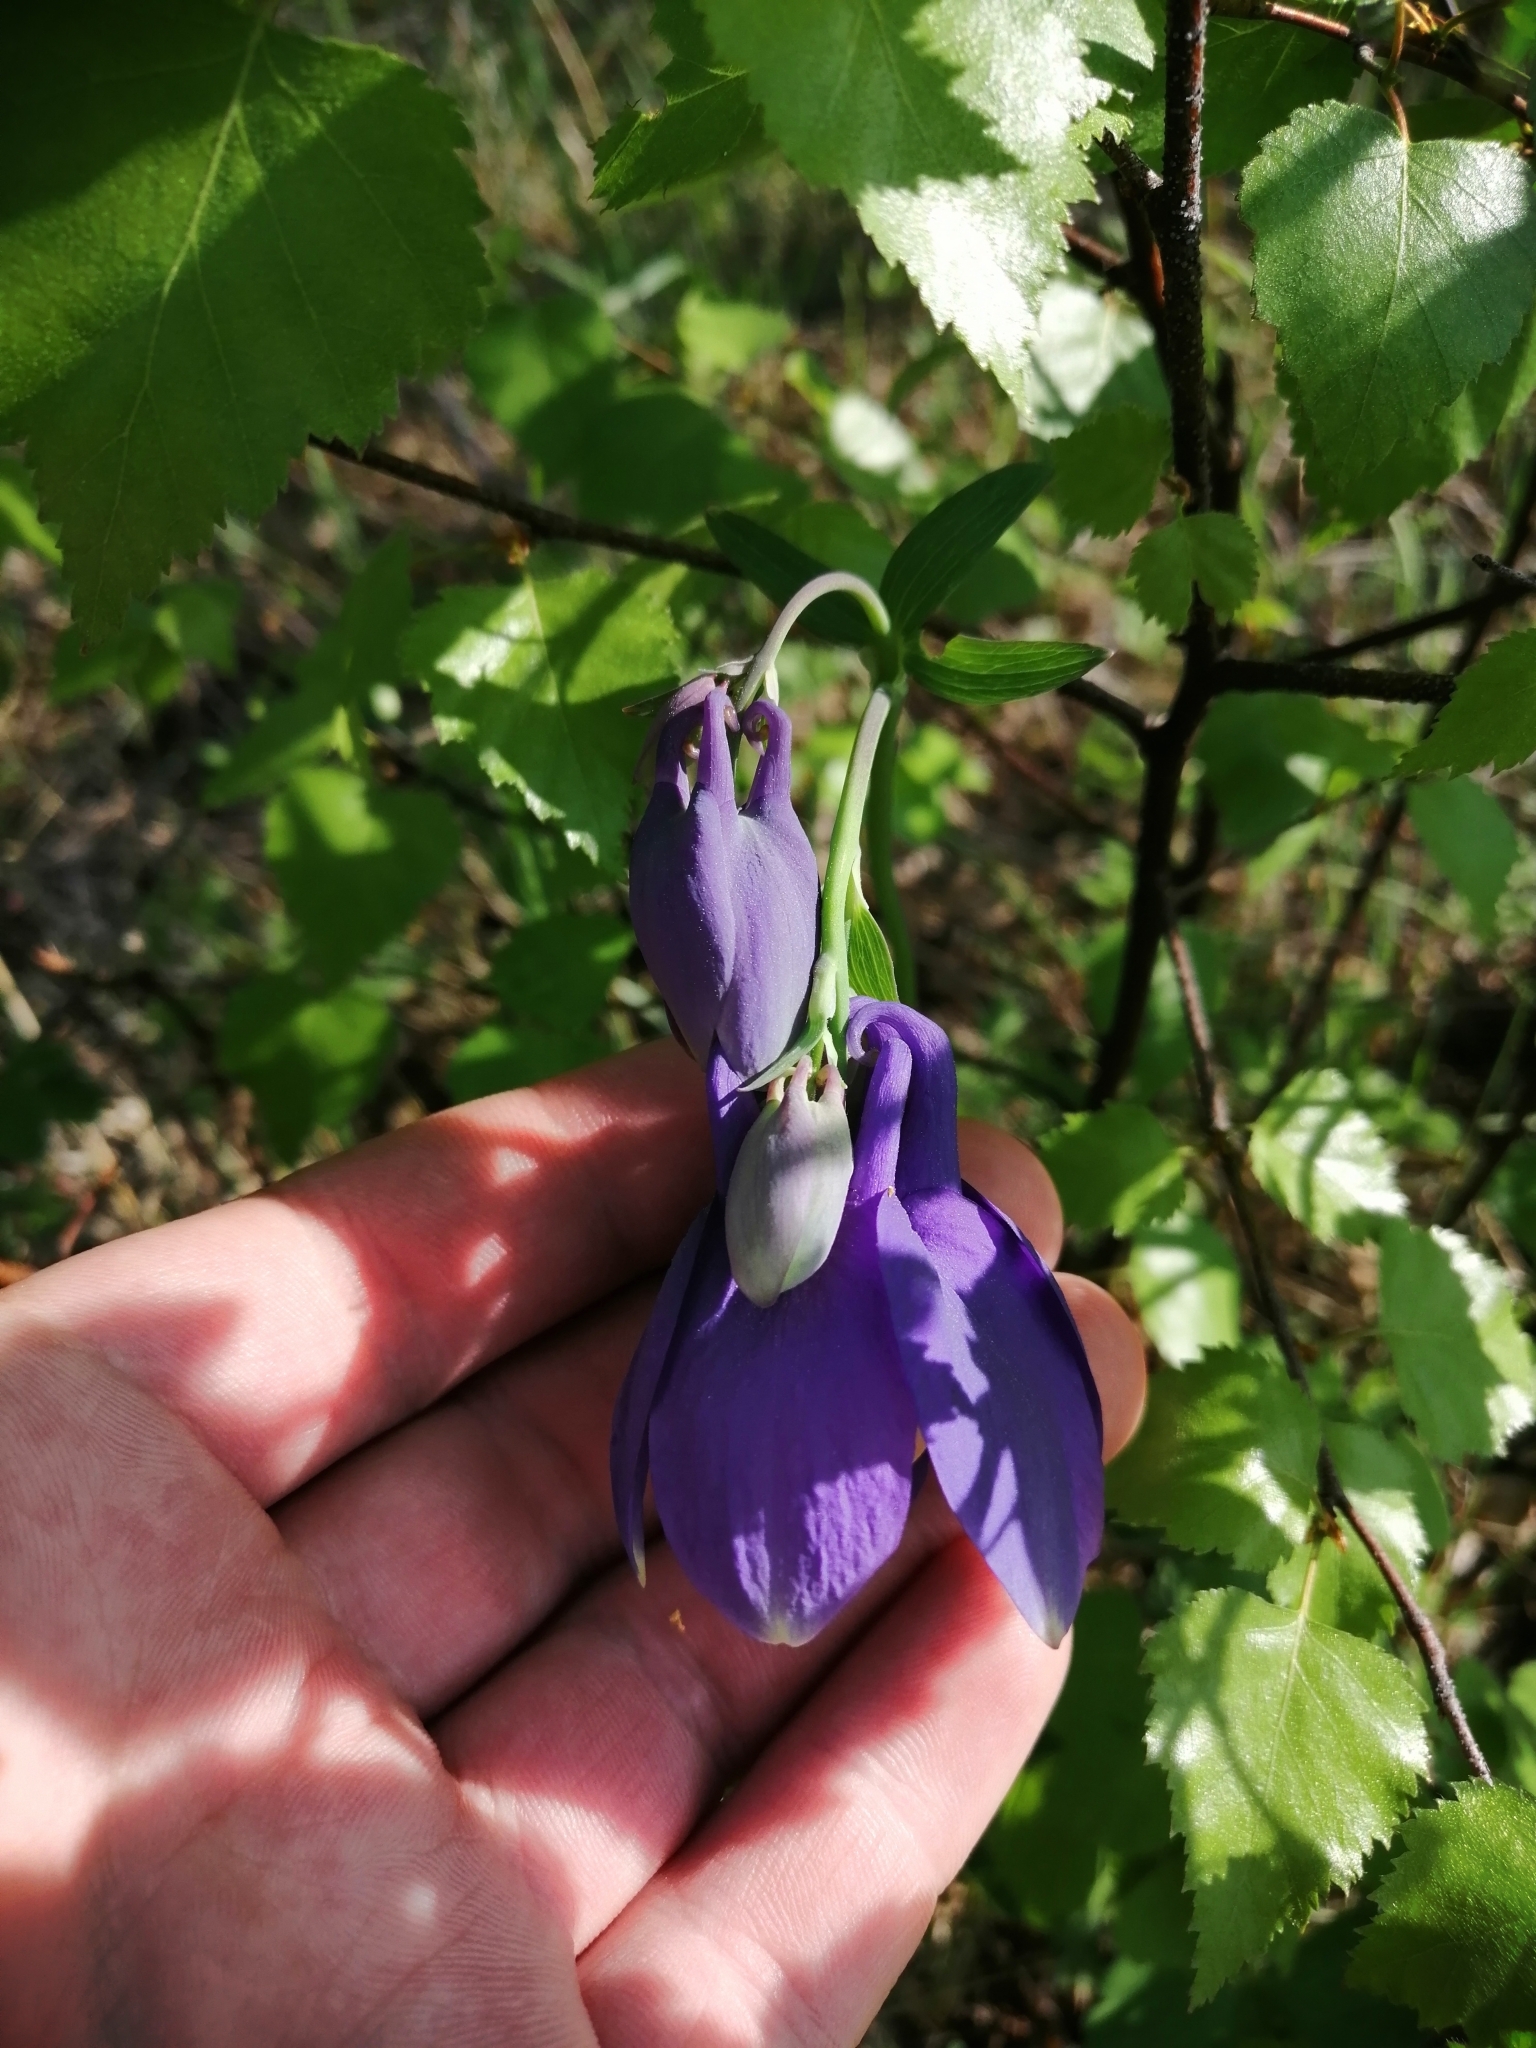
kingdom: Plantae
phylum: Tracheophyta
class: Magnoliopsida
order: Ranunculales
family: Ranunculaceae
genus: Aquilegia
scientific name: Aquilegia sibirica
